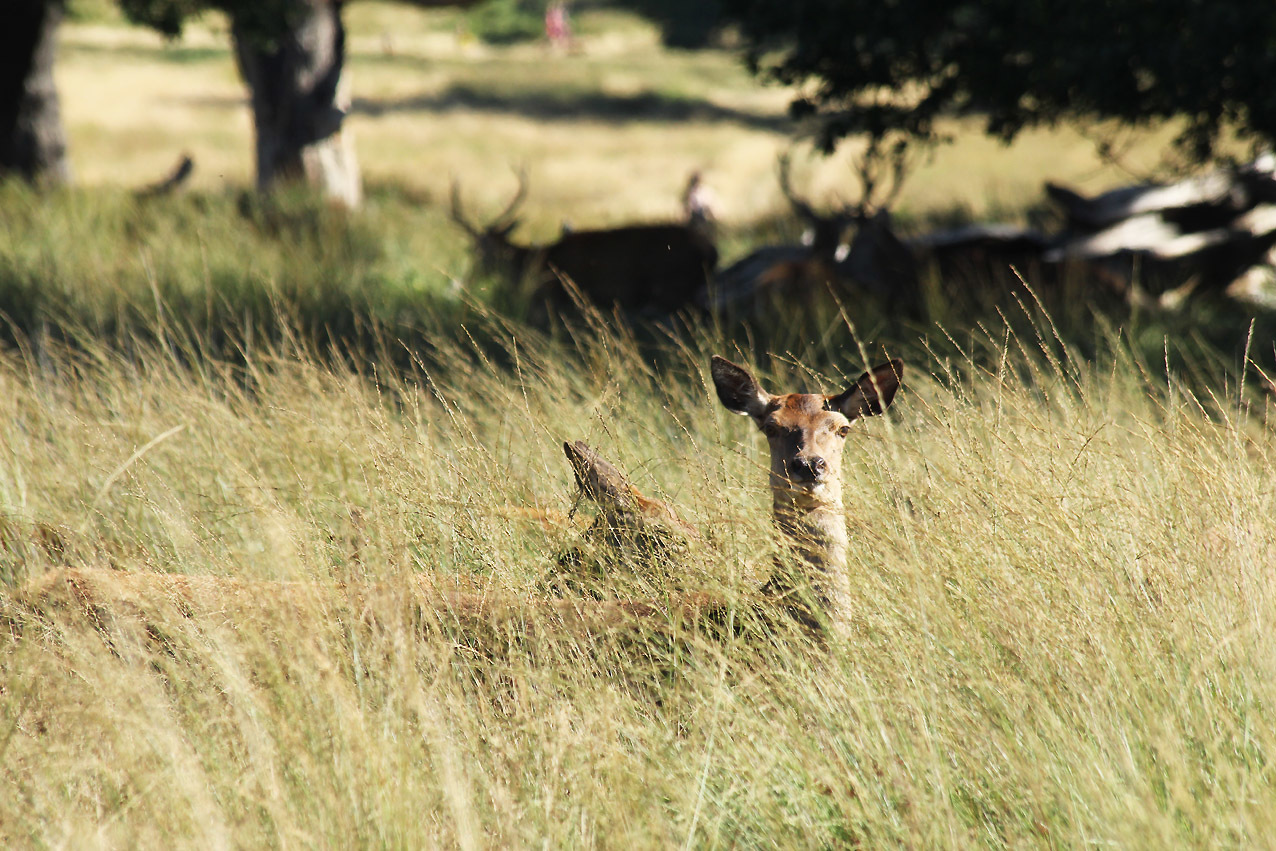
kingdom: Animalia
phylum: Chordata
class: Mammalia
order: Artiodactyla
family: Cervidae
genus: Cervus
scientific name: Cervus elaphus
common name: Red deer
